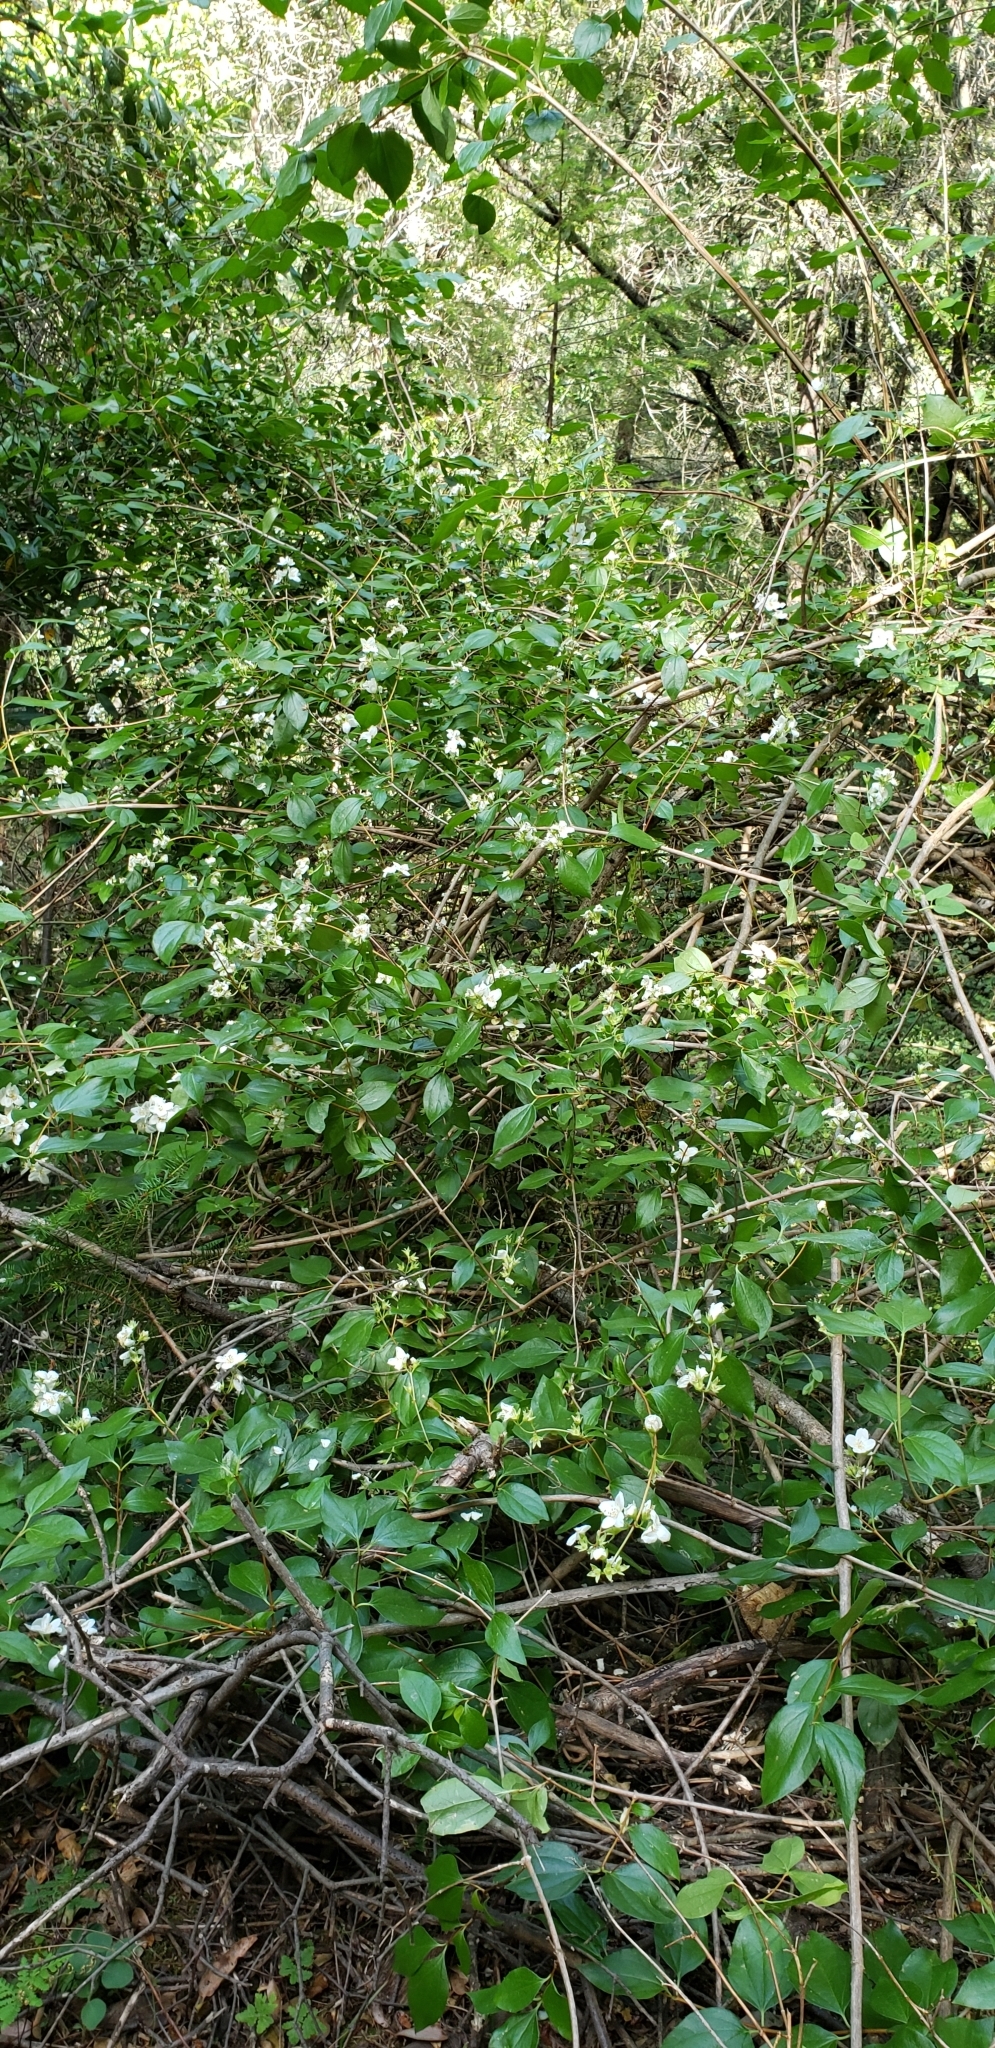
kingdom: Plantae
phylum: Tracheophyta
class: Magnoliopsida
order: Cornales
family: Hydrangeaceae
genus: Philadelphus
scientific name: Philadelphus lewisii
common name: Lewis's mock orange
